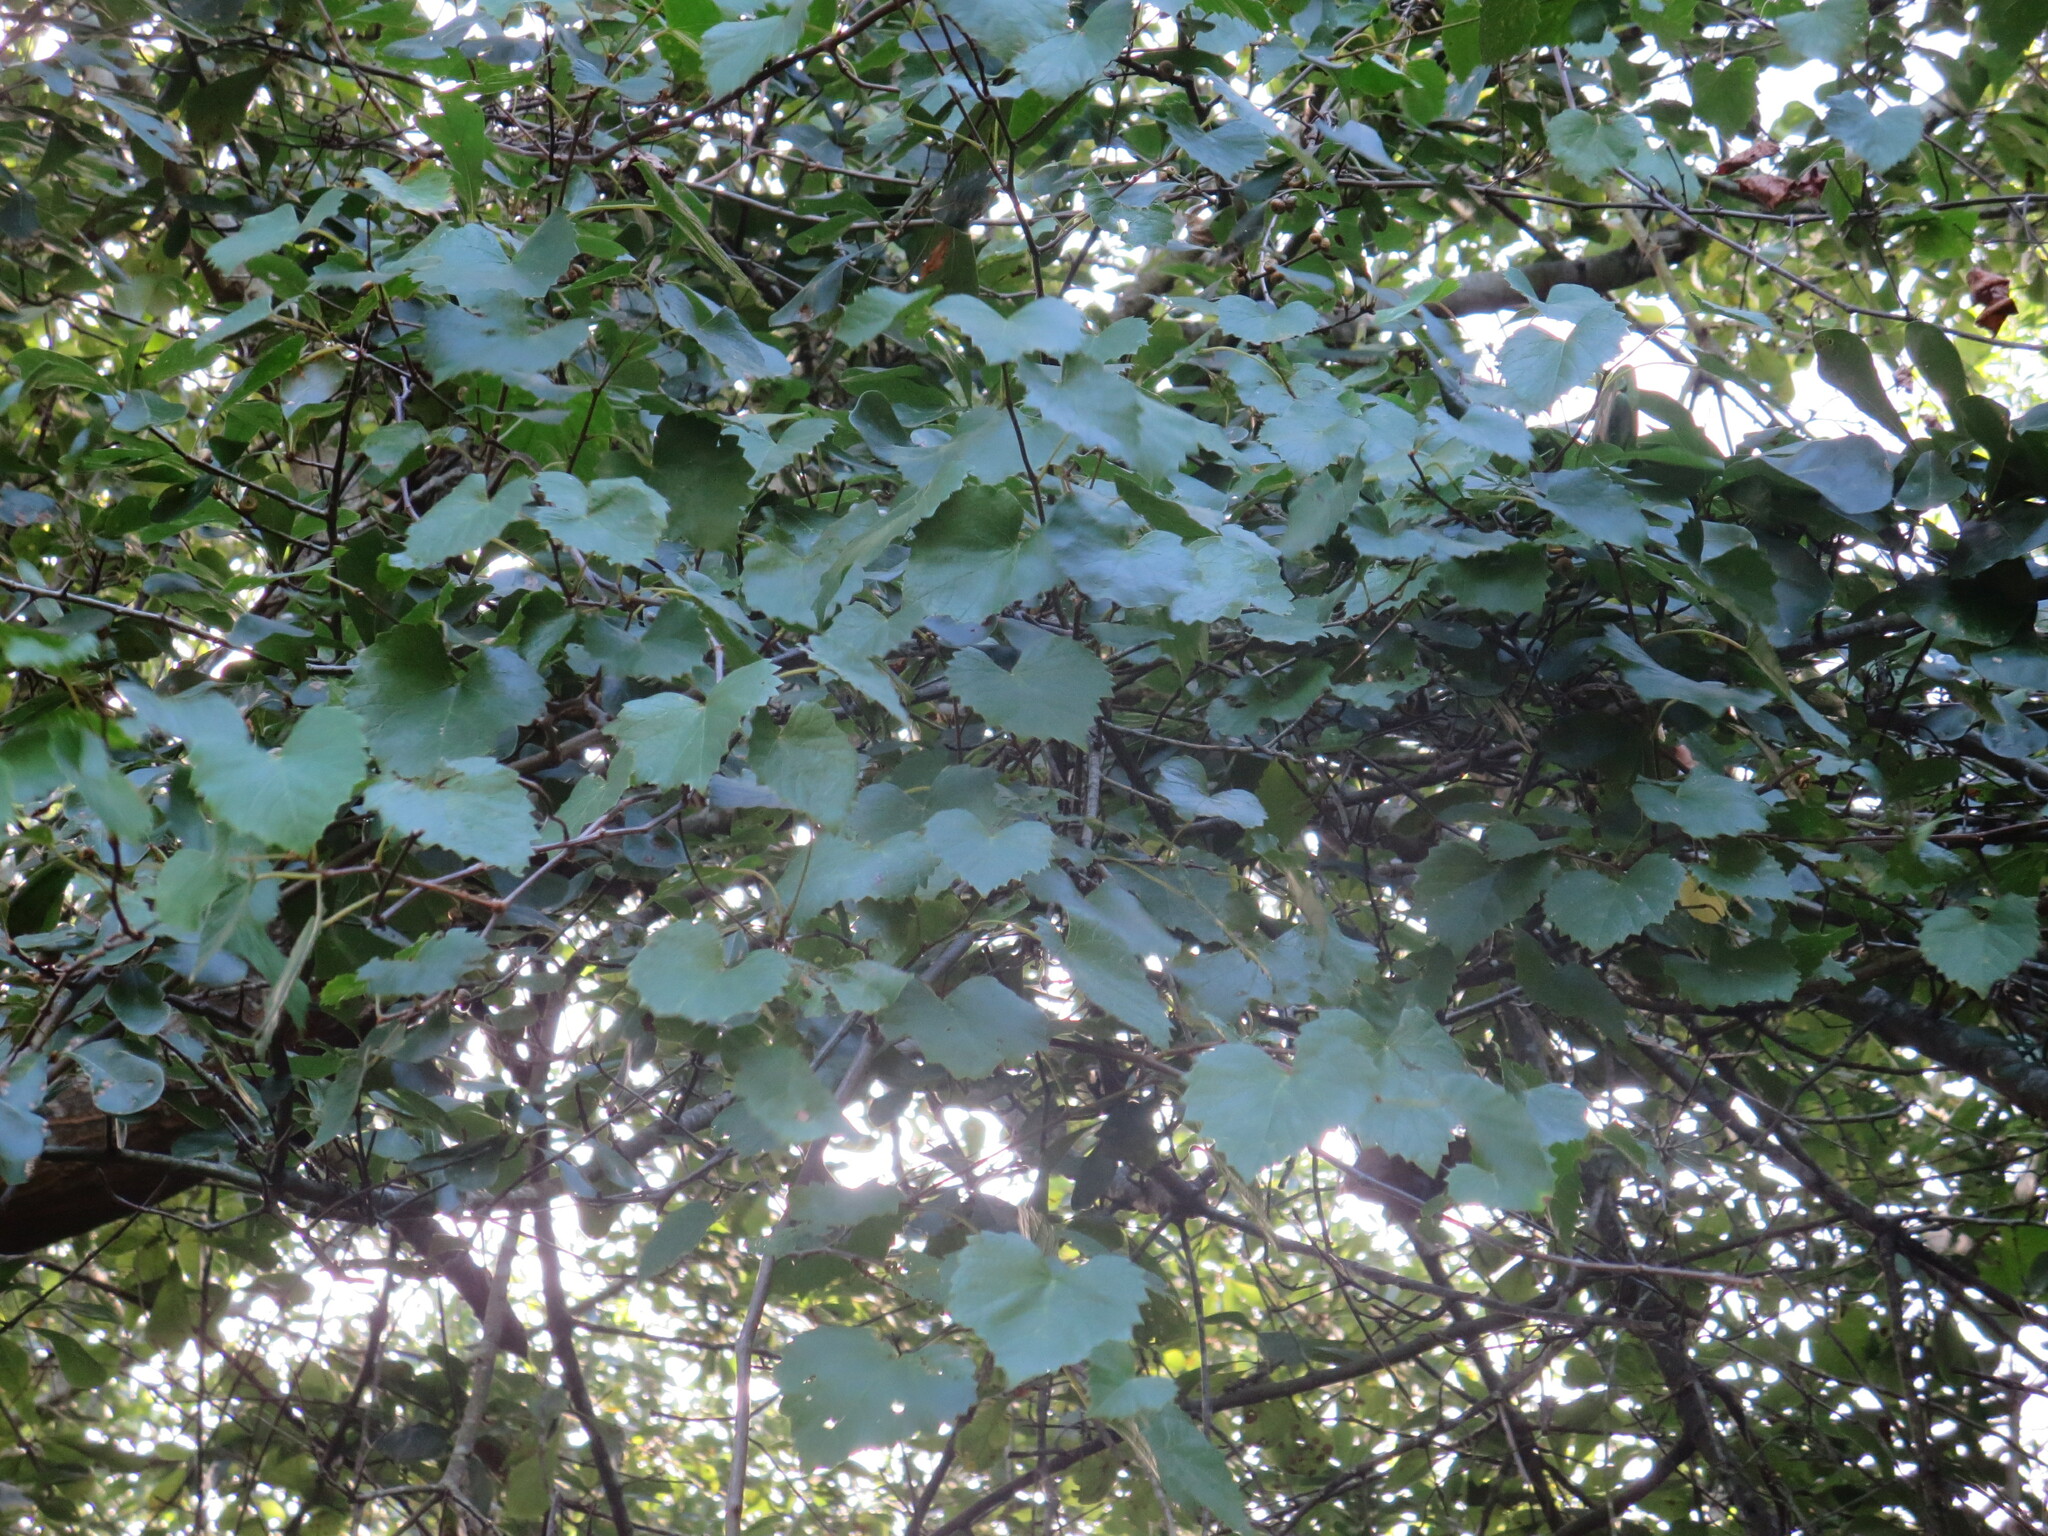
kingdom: Plantae
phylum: Tracheophyta
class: Magnoliopsida
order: Vitales
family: Vitaceae
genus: Vitis
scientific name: Vitis rotundifolia
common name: Muscadine grape
